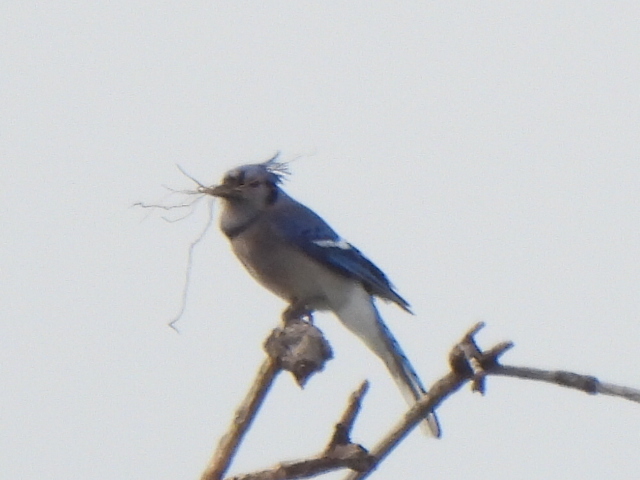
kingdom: Animalia
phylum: Chordata
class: Aves
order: Passeriformes
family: Corvidae
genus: Cyanocitta
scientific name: Cyanocitta cristata
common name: Blue jay
